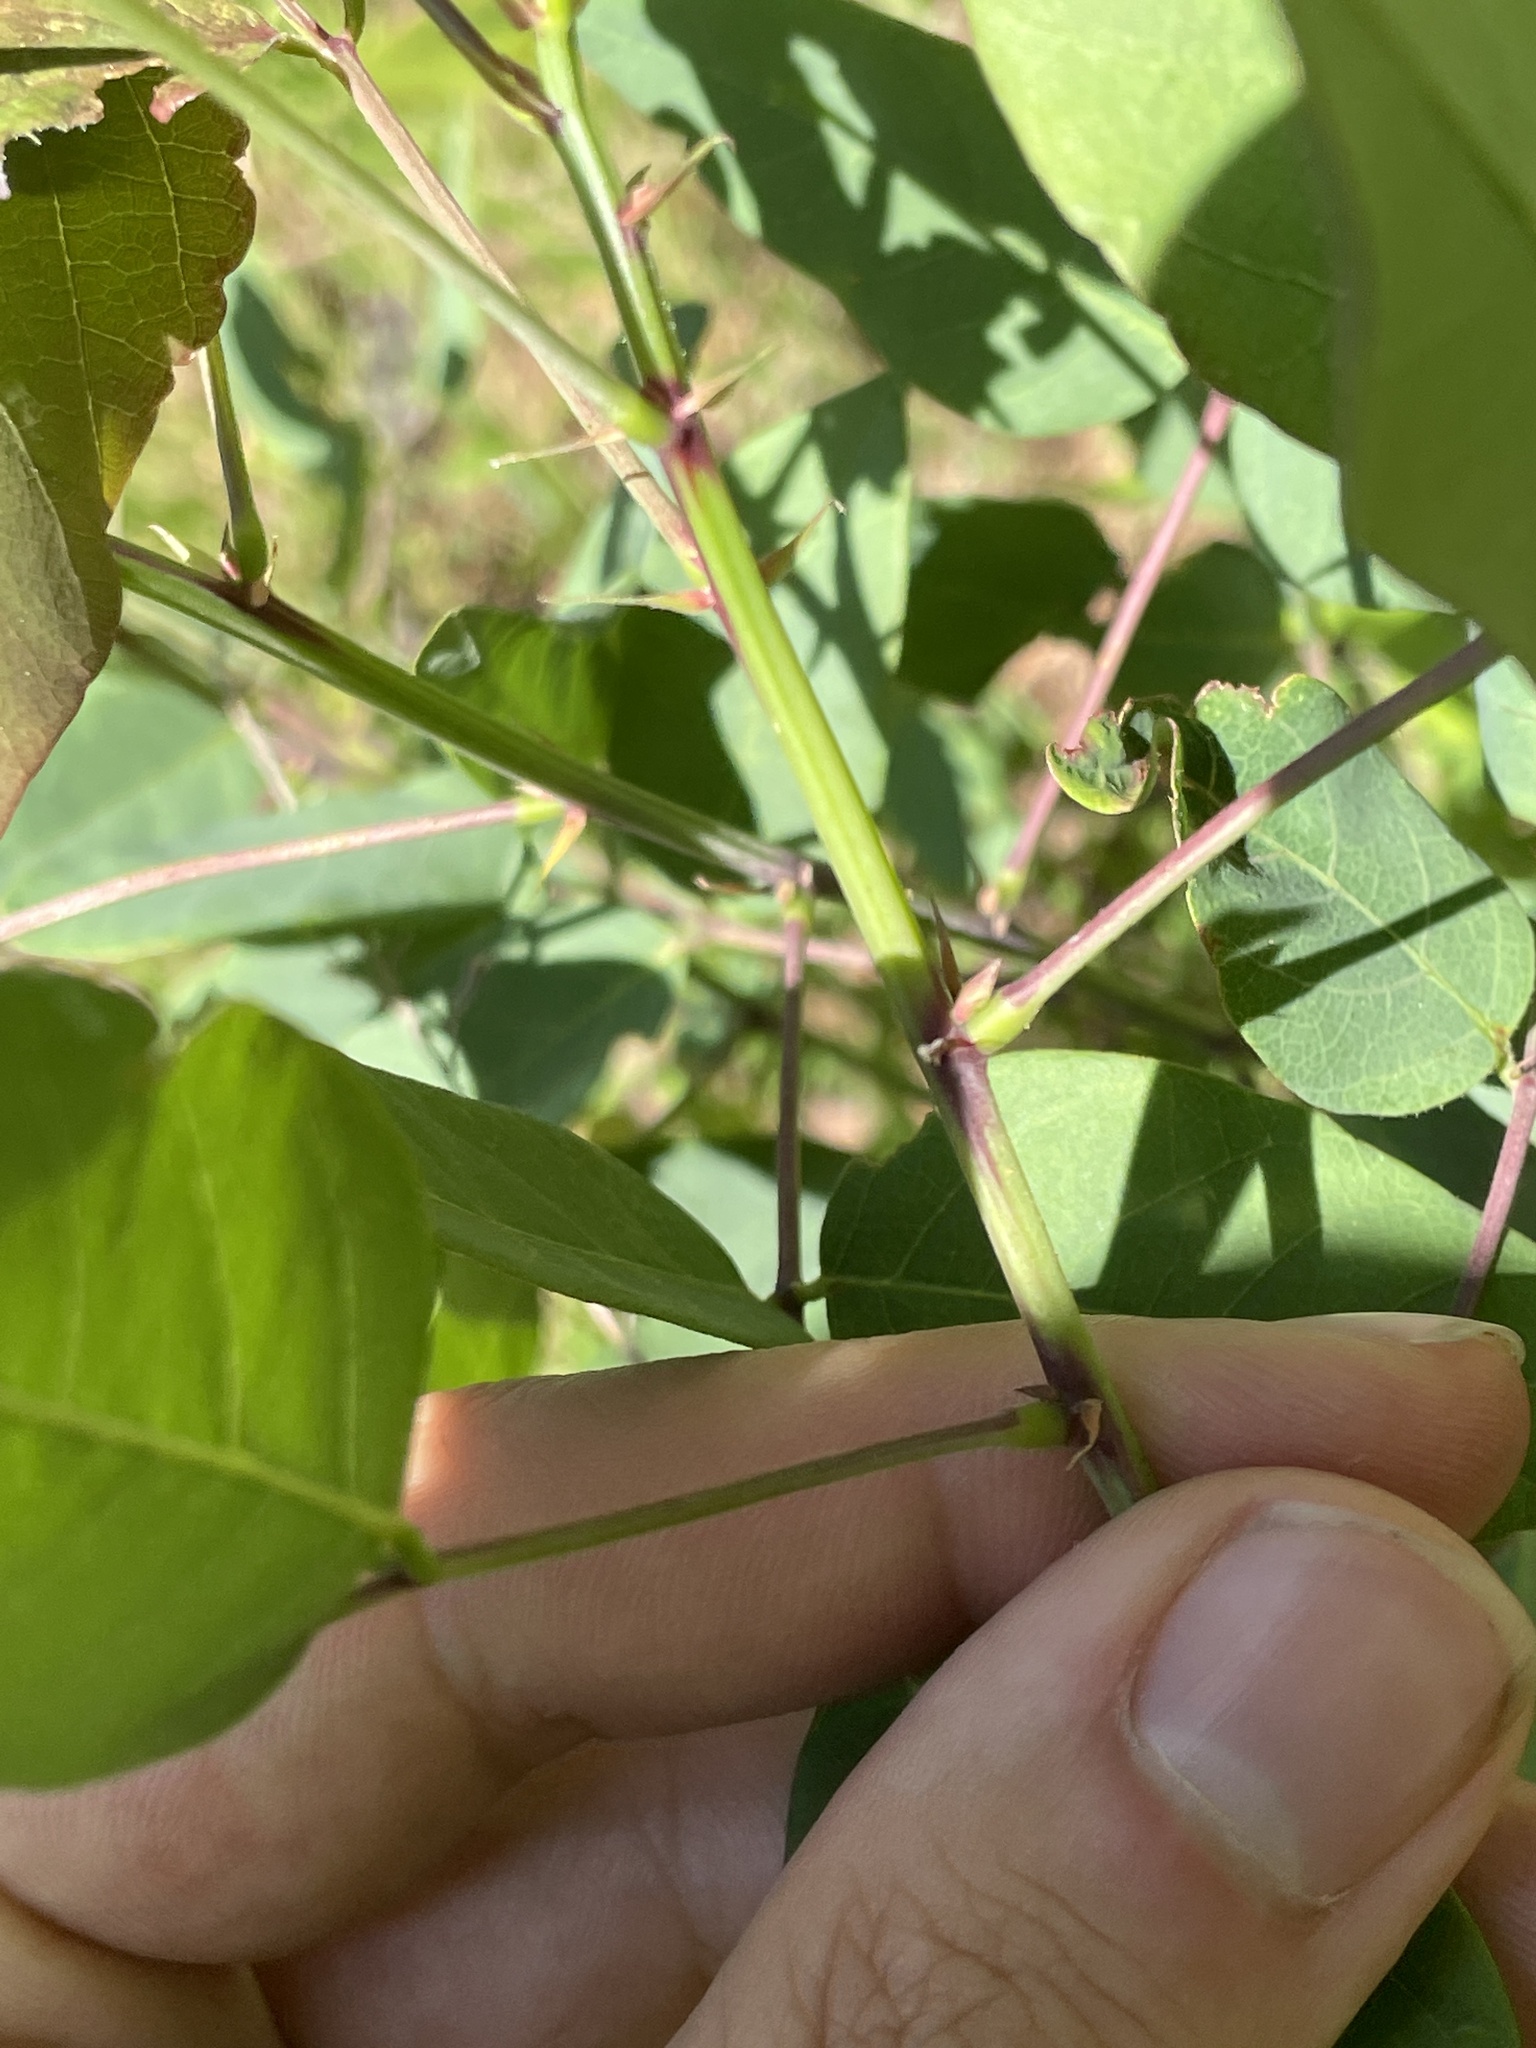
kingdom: Plantae
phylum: Tracheophyta
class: Magnoliopsida
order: Fabales
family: Fabaceae
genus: Desmodium
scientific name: Desmodium laevigatum
